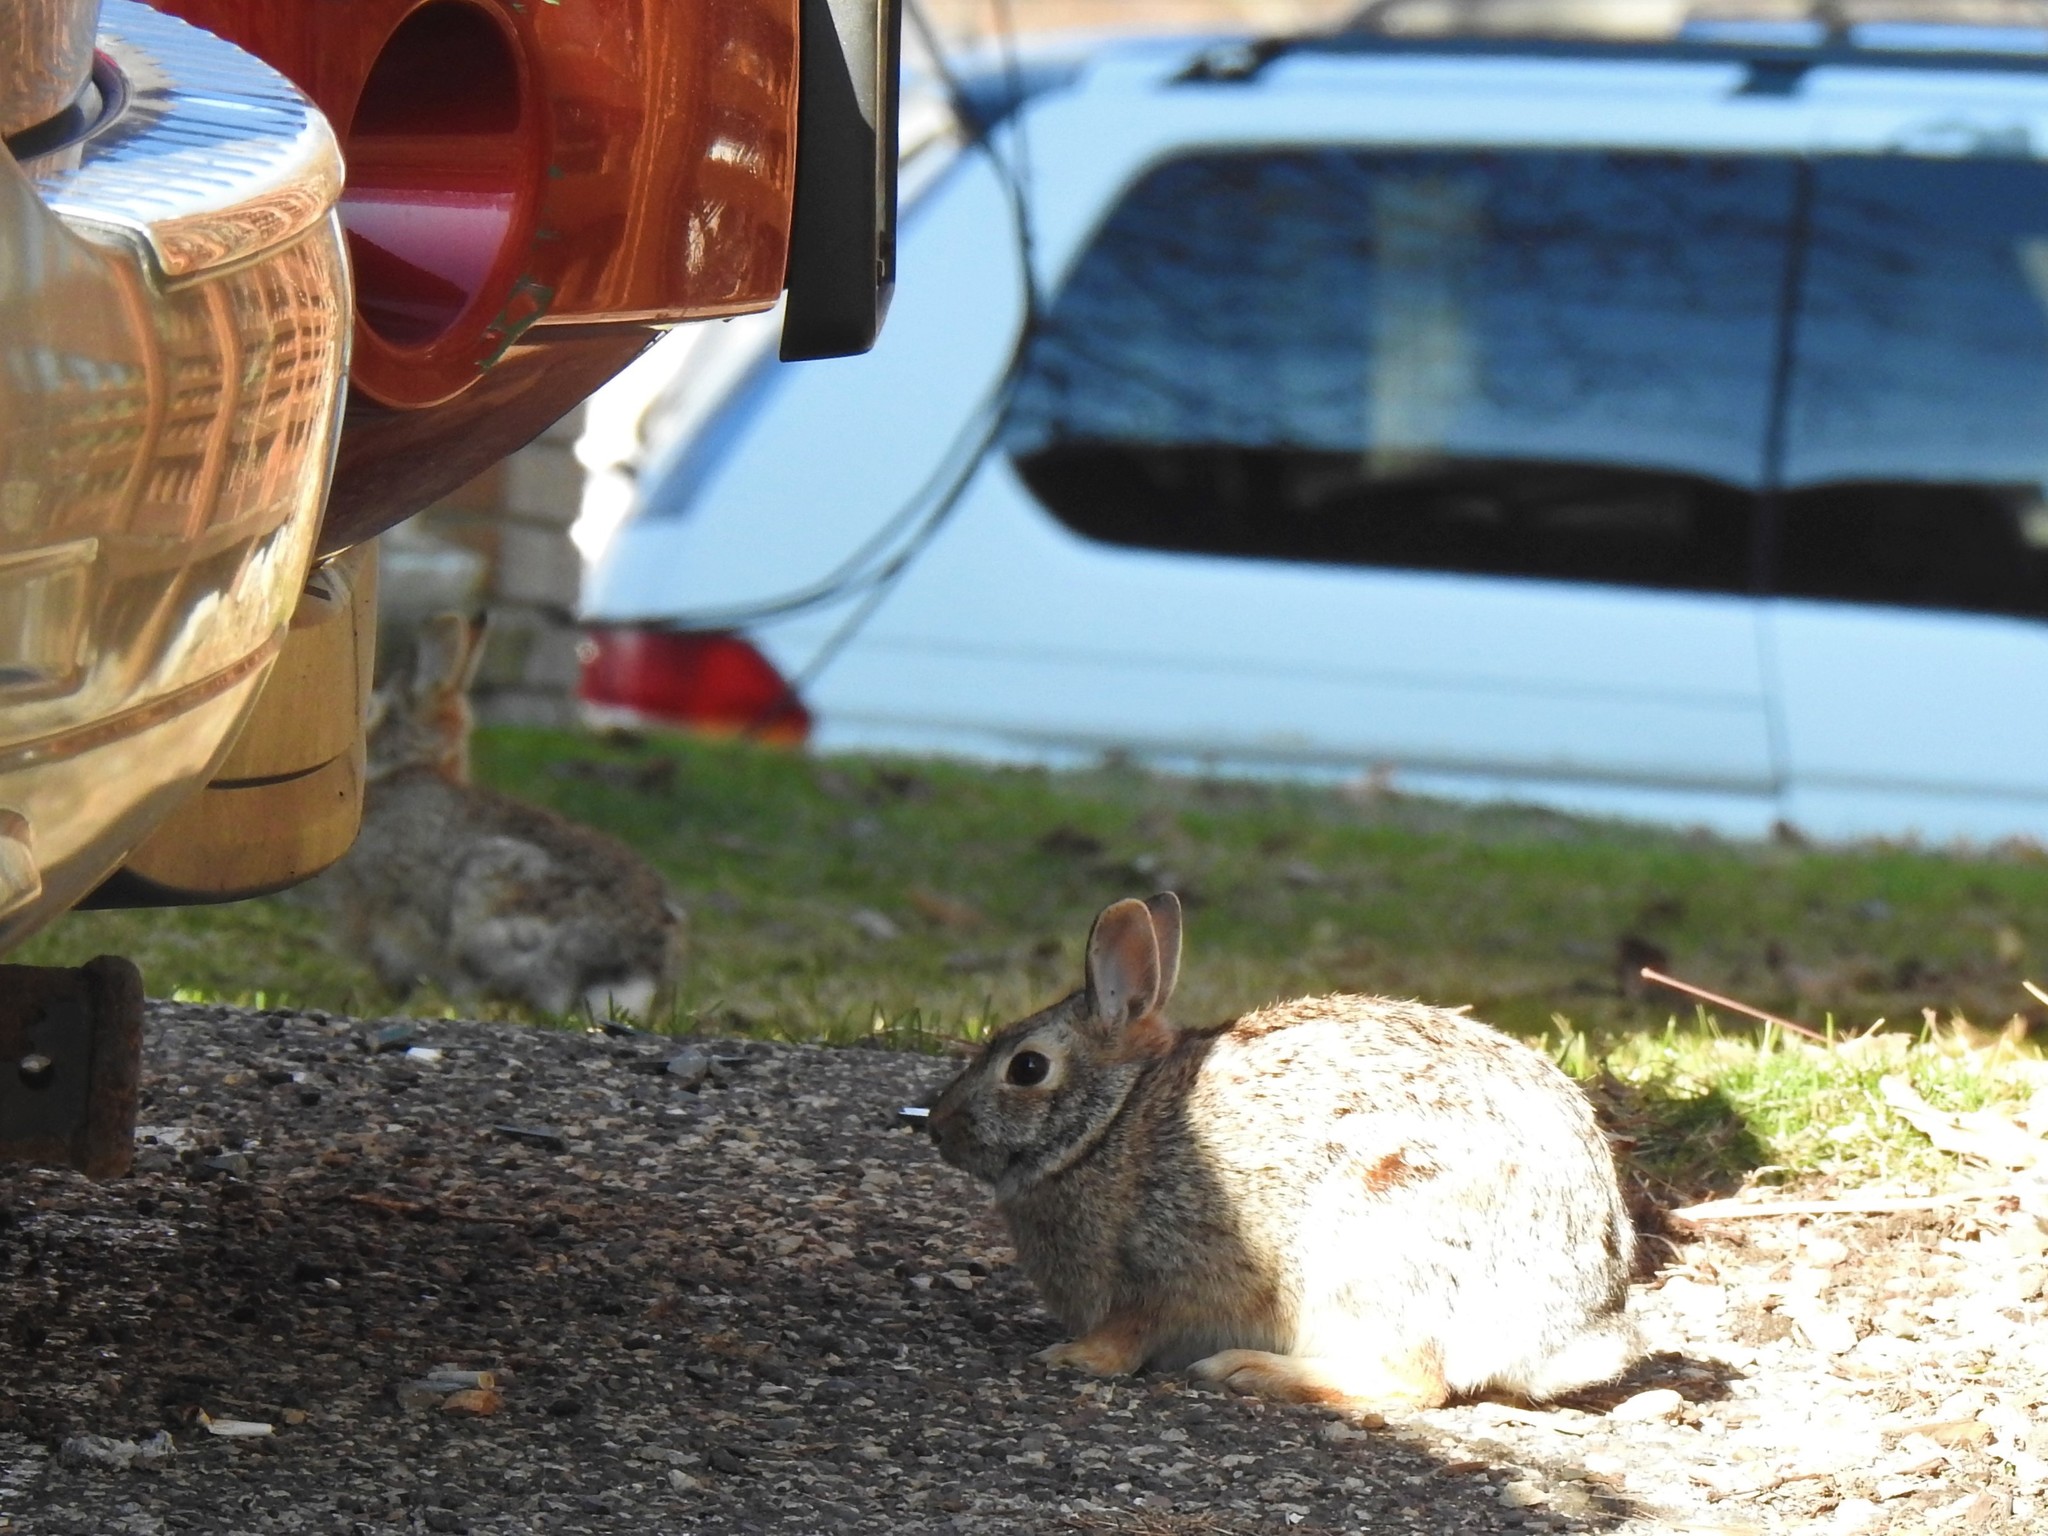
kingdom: Animalia
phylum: Chordata
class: Mammalia
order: Lagomorpha
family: Leporidae
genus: Sylvilagus
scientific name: Sylvilagus floridanus
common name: Eastern cottontail
